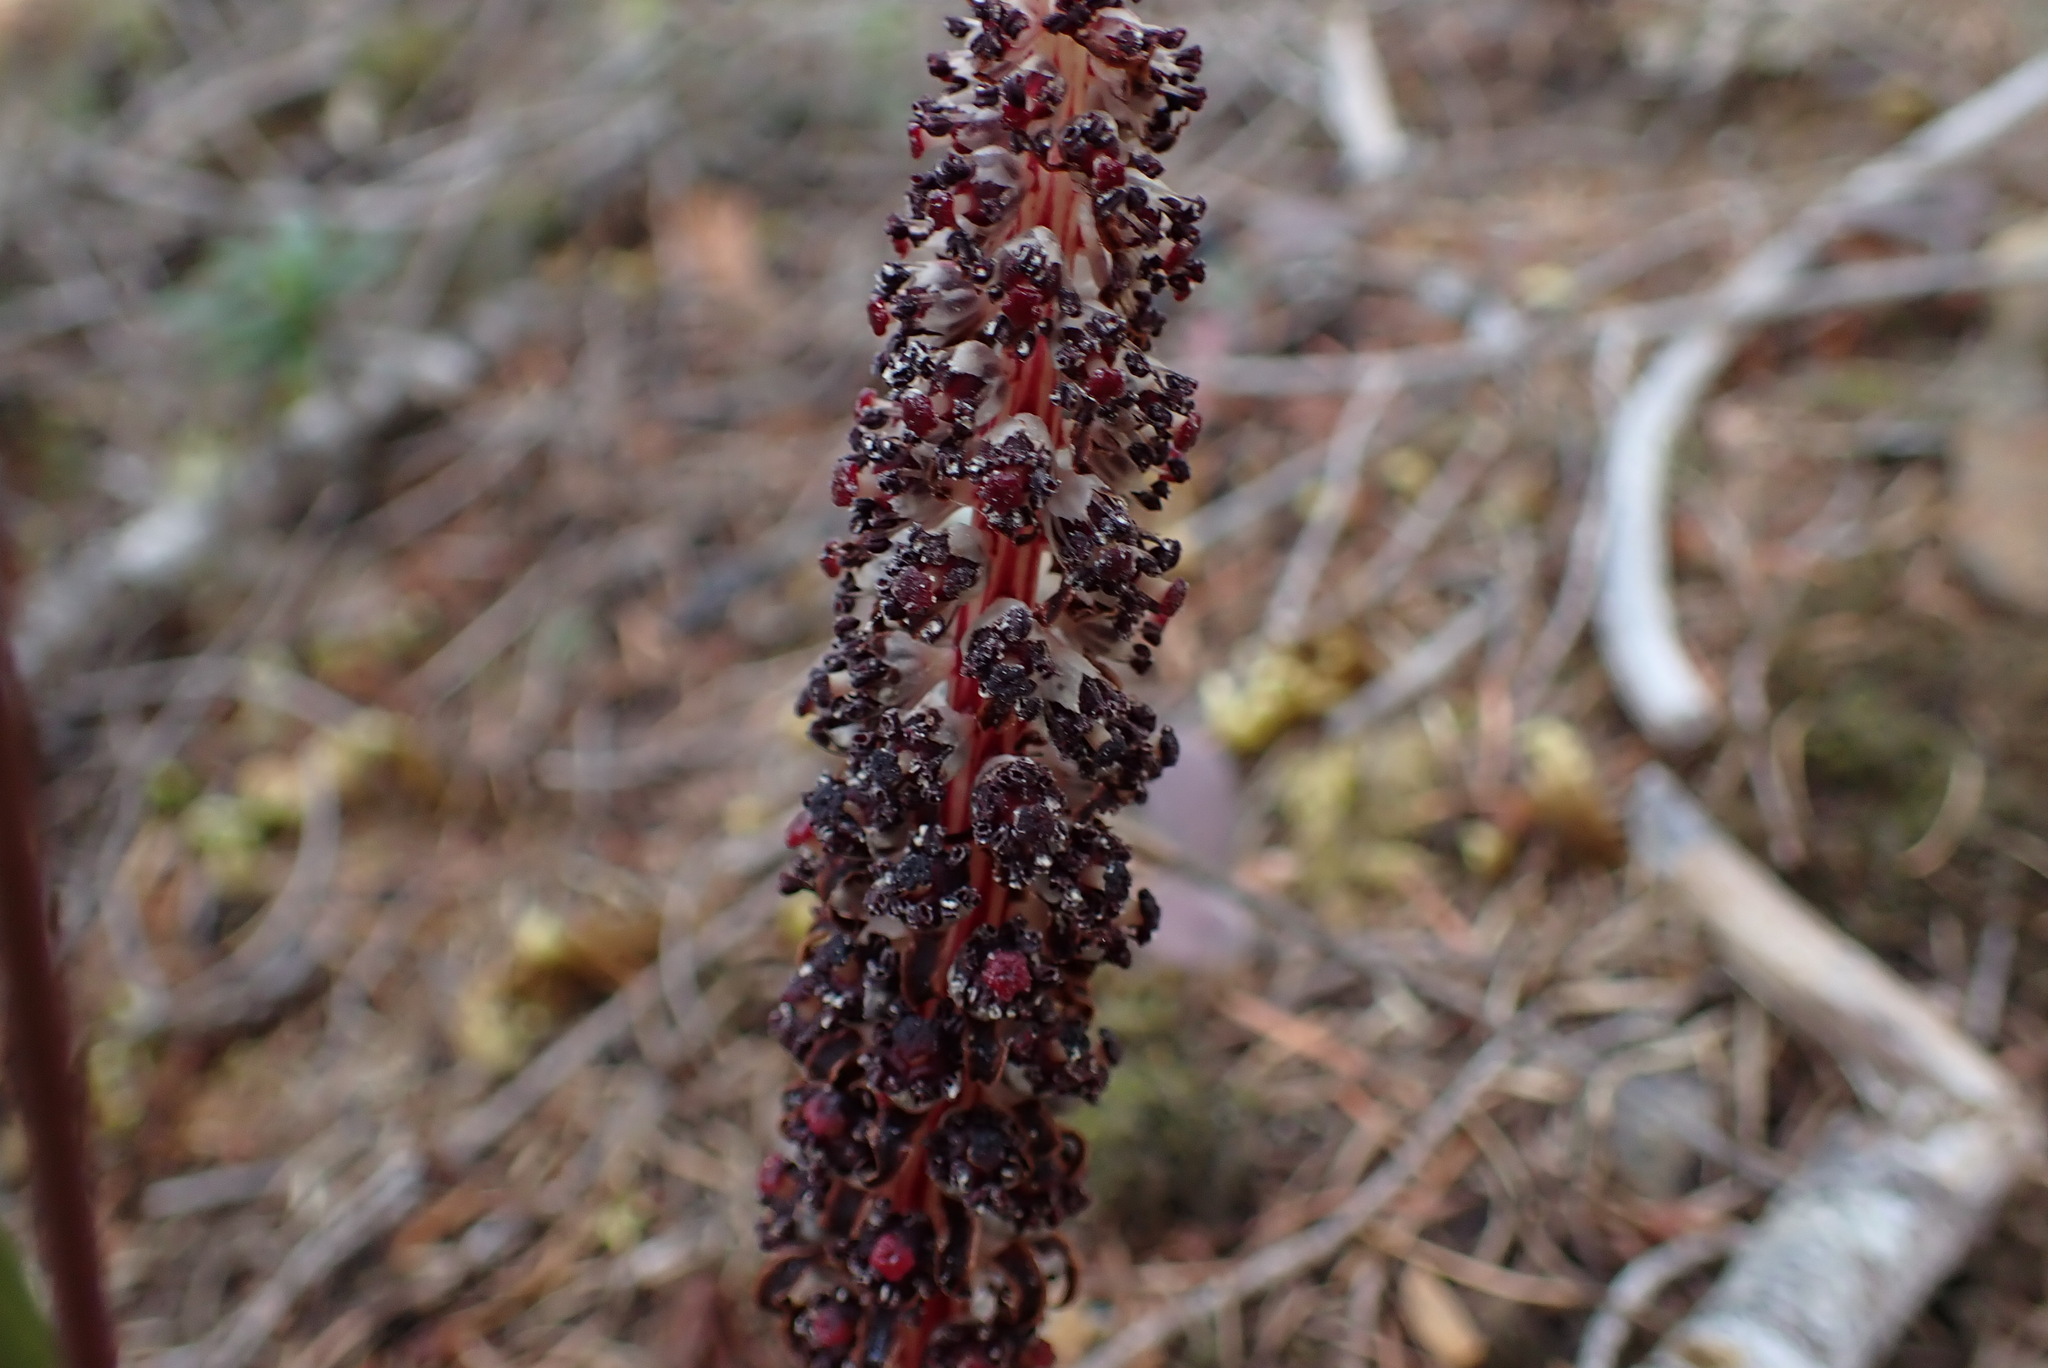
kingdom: Plantae
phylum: Tracheophyta
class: Magnoliopsida
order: Ericales
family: Ericaceae
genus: Allotropa
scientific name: Allotropa virgata
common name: Candy-striped allotropa
